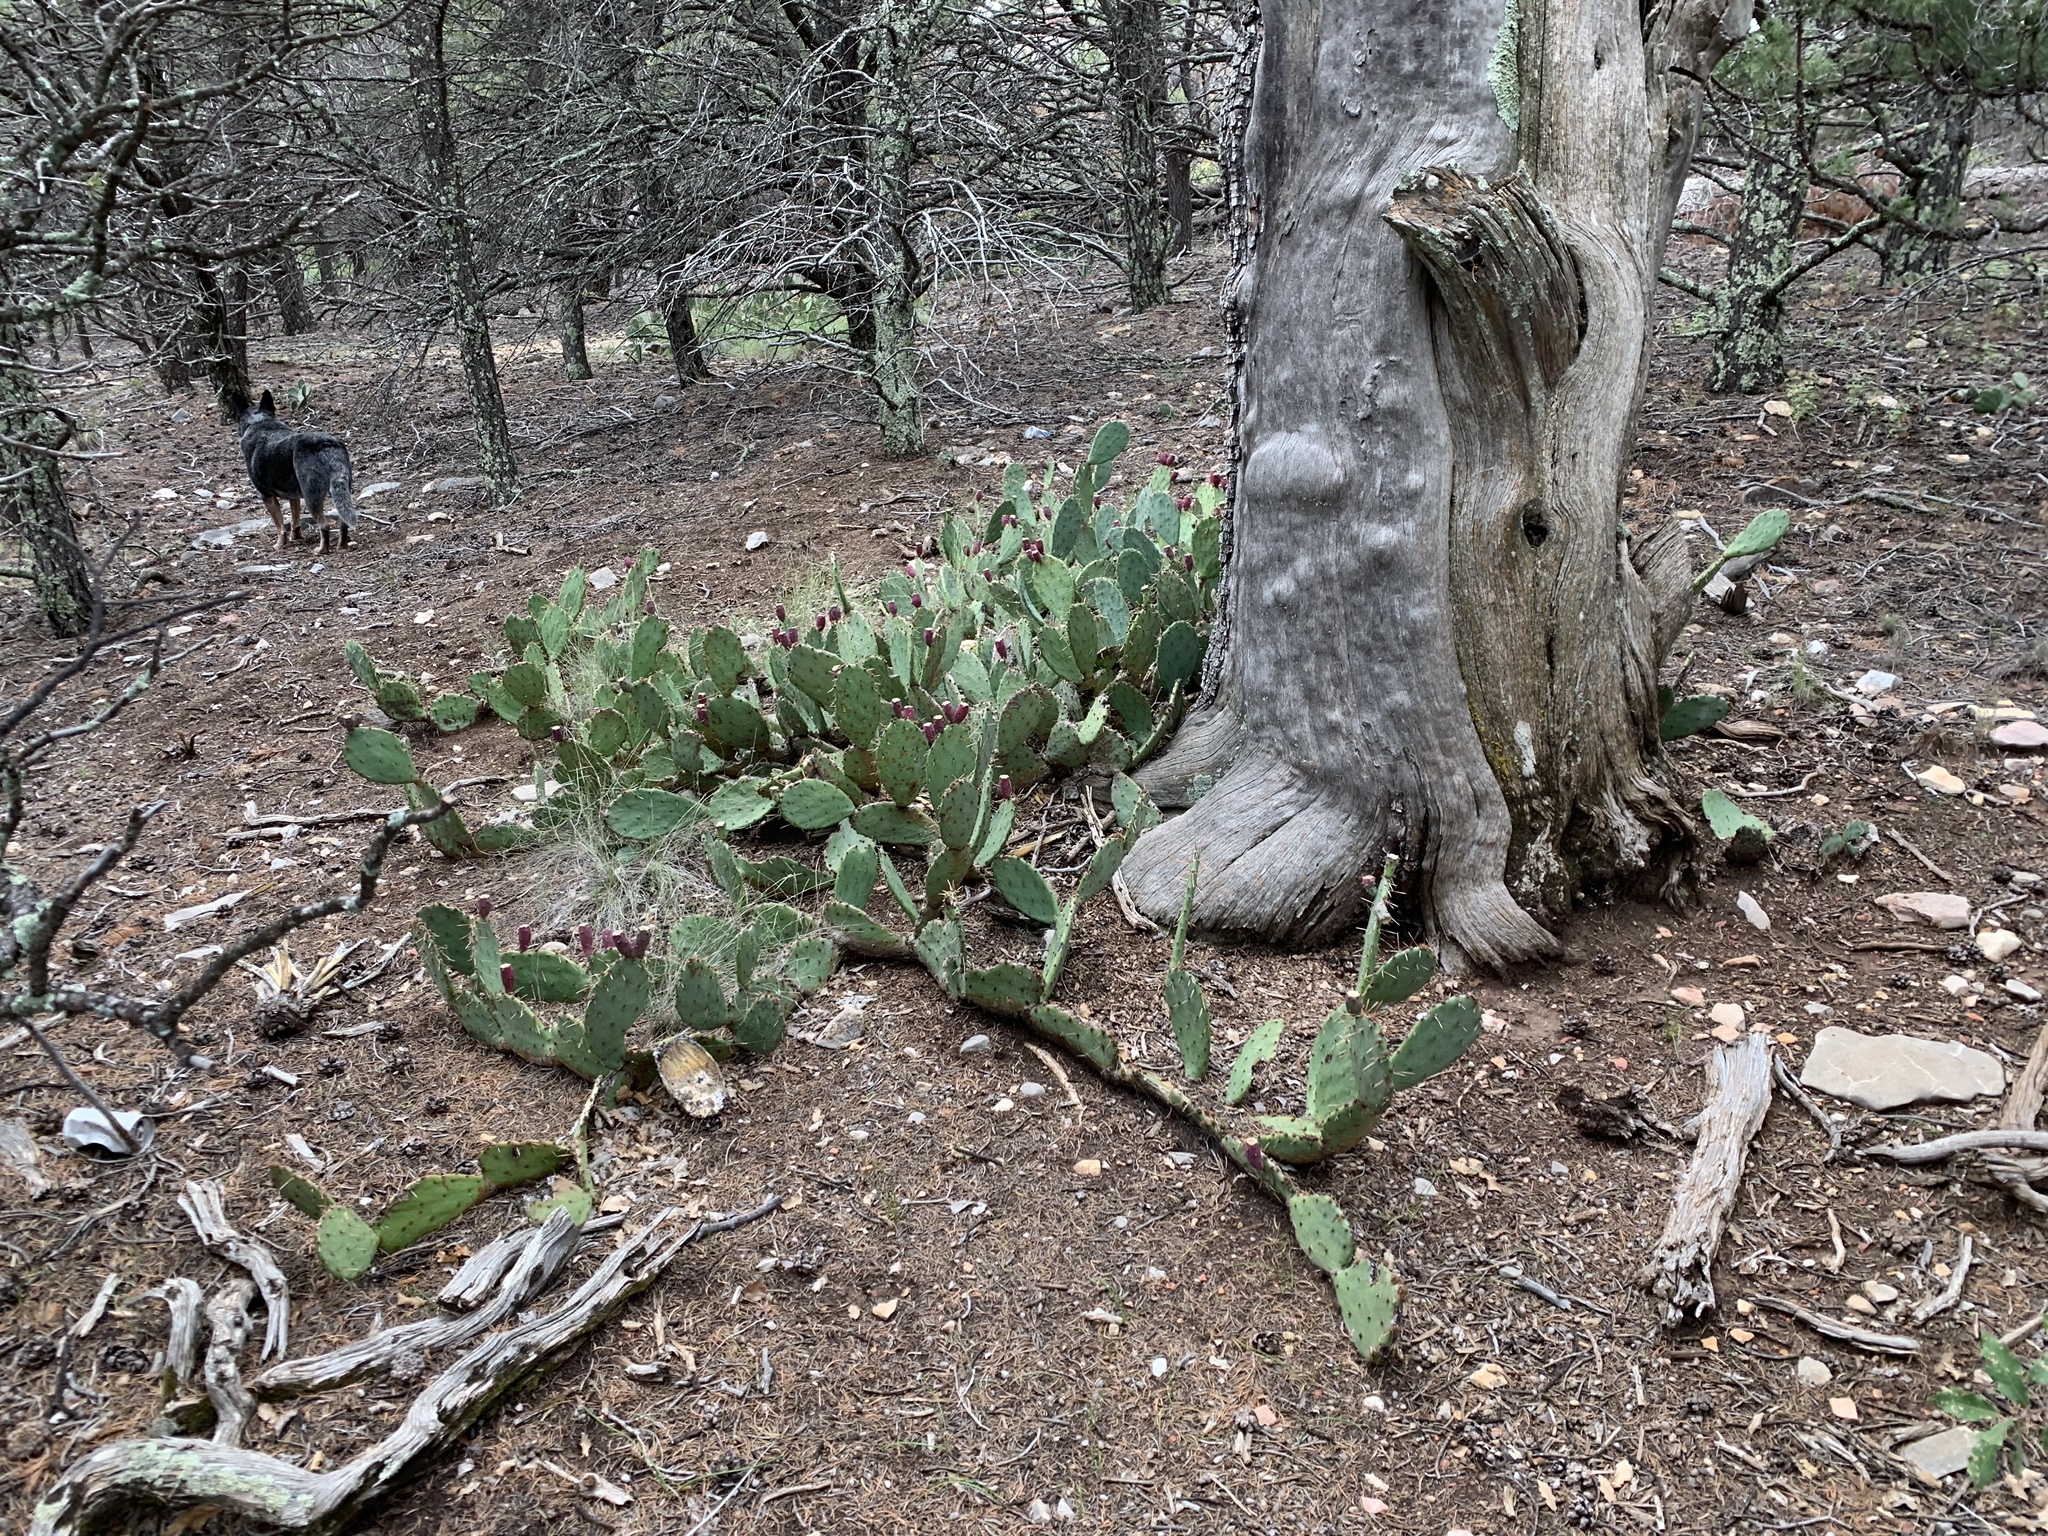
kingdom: Plantae
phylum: Tracheophyta
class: Magnoliopsida
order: Caryophyllales
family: Cactaceae
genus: Opuntia
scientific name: Opuntia engelmannii
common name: Cactus-apple
